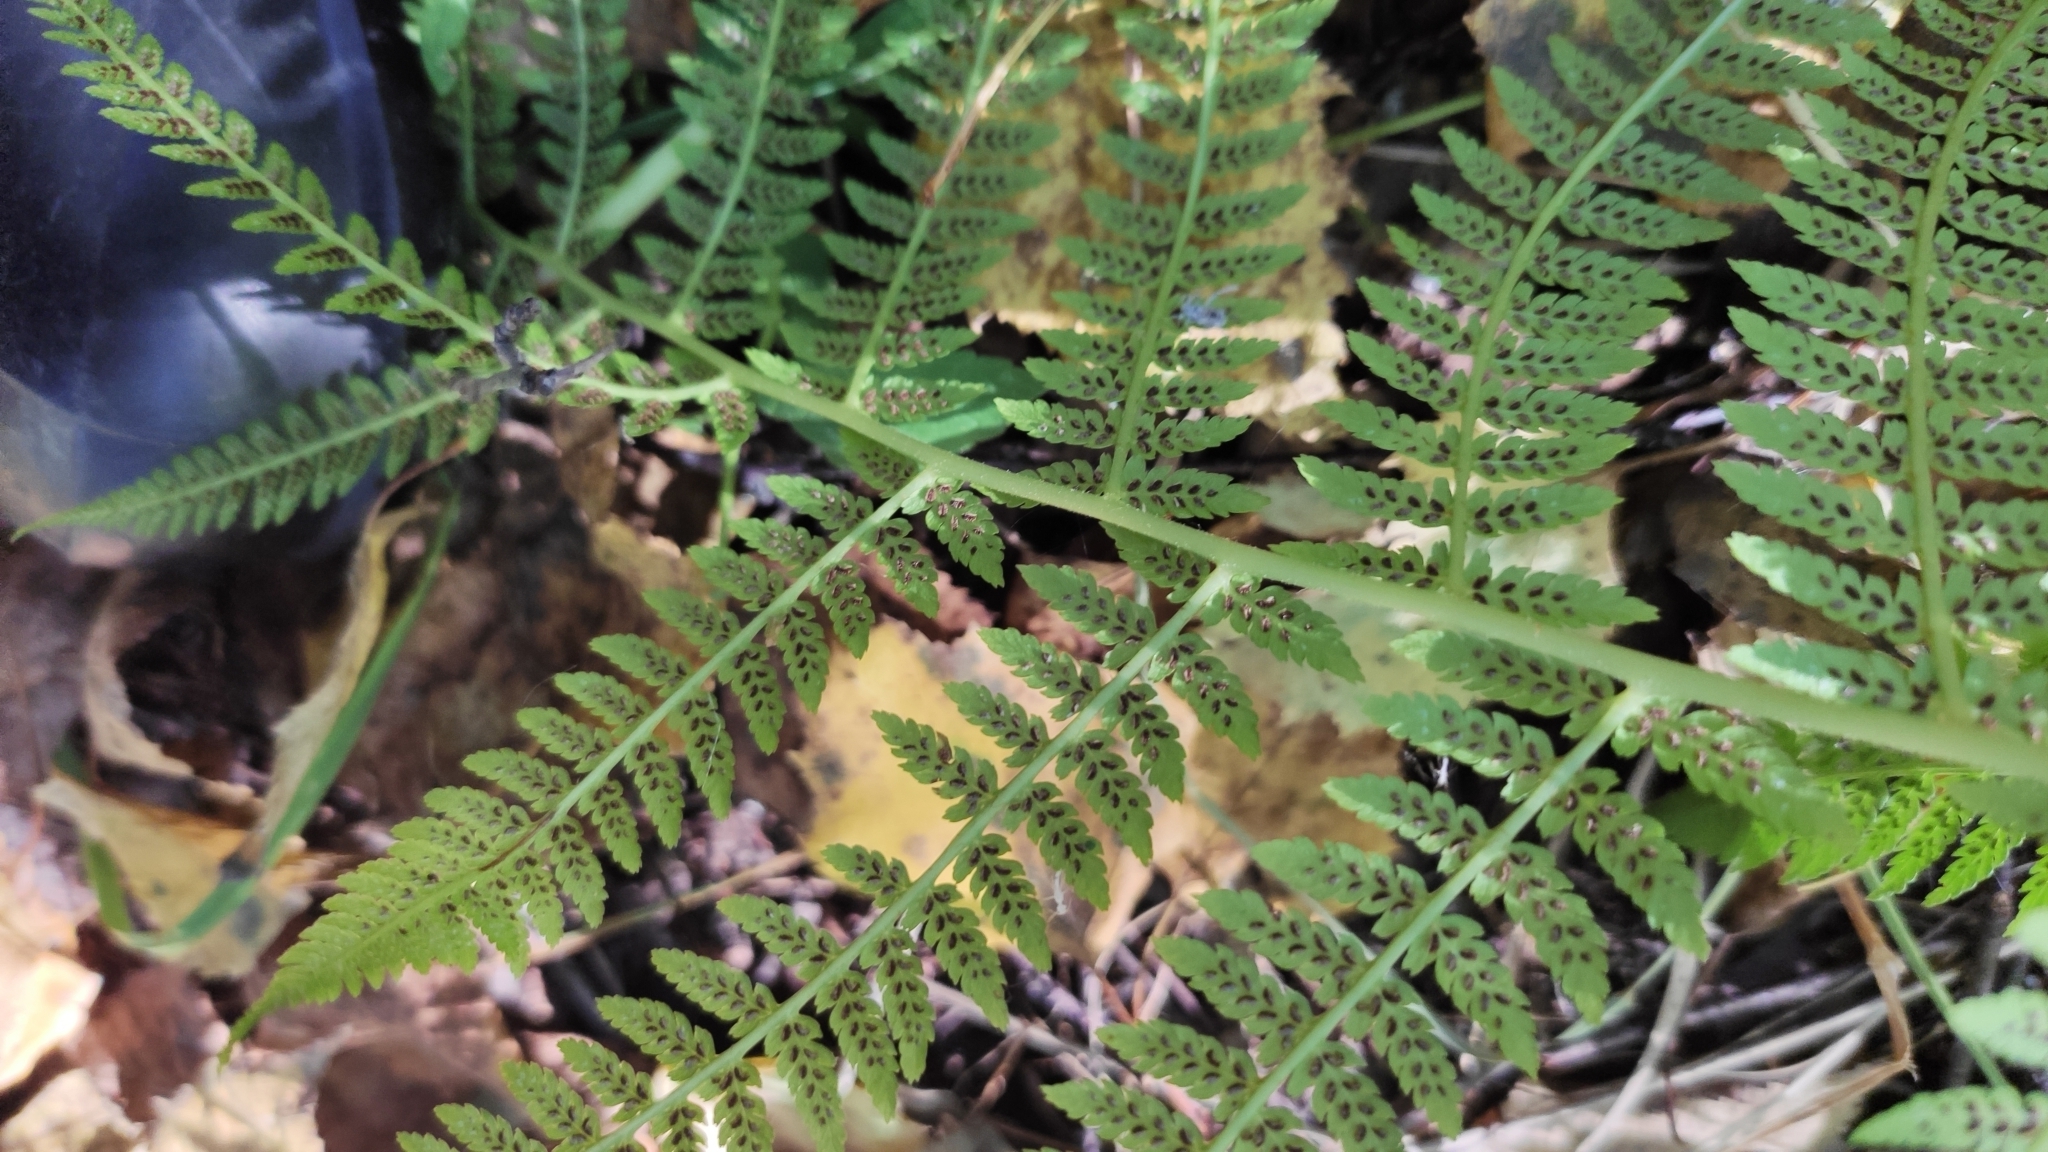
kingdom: Plantae
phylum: Tracheophyta
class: Polypodiopsida
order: Polypodiales
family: Athyriaceae
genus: Athyrium
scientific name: Athyrium filix-femina
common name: Lady fern
